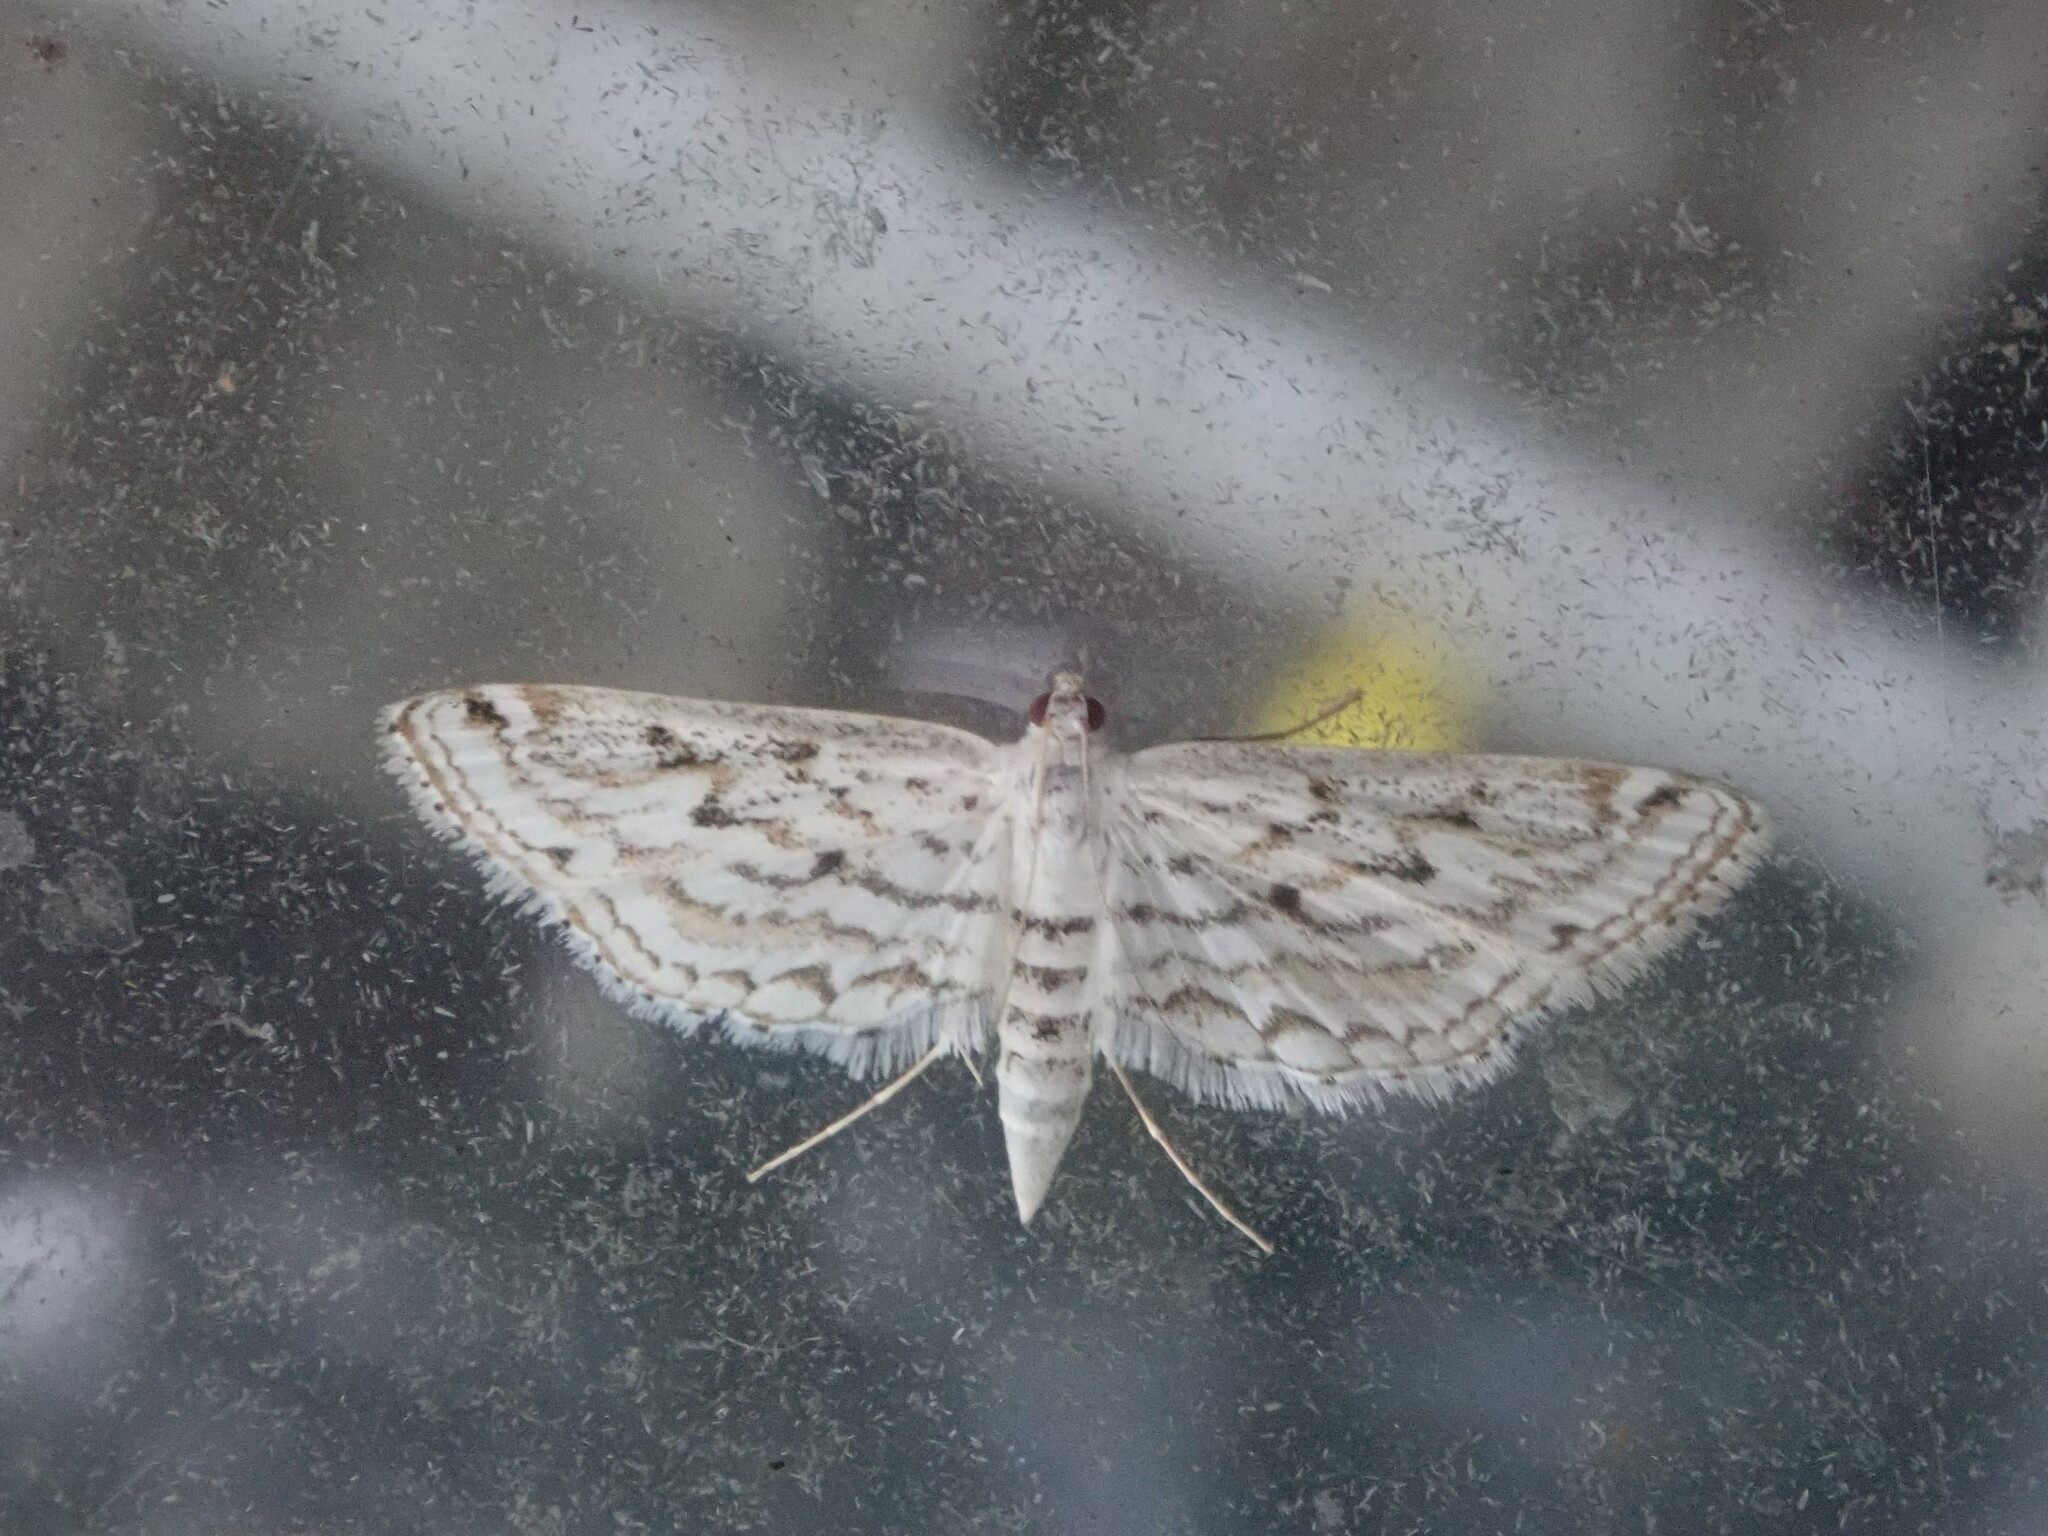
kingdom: Animalia
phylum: Arthropoda
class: Insecta
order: Lepidoptera
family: Crambidae
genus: Parapoynx
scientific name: Parapoynx allionealis
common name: Bladderwort casemaker
